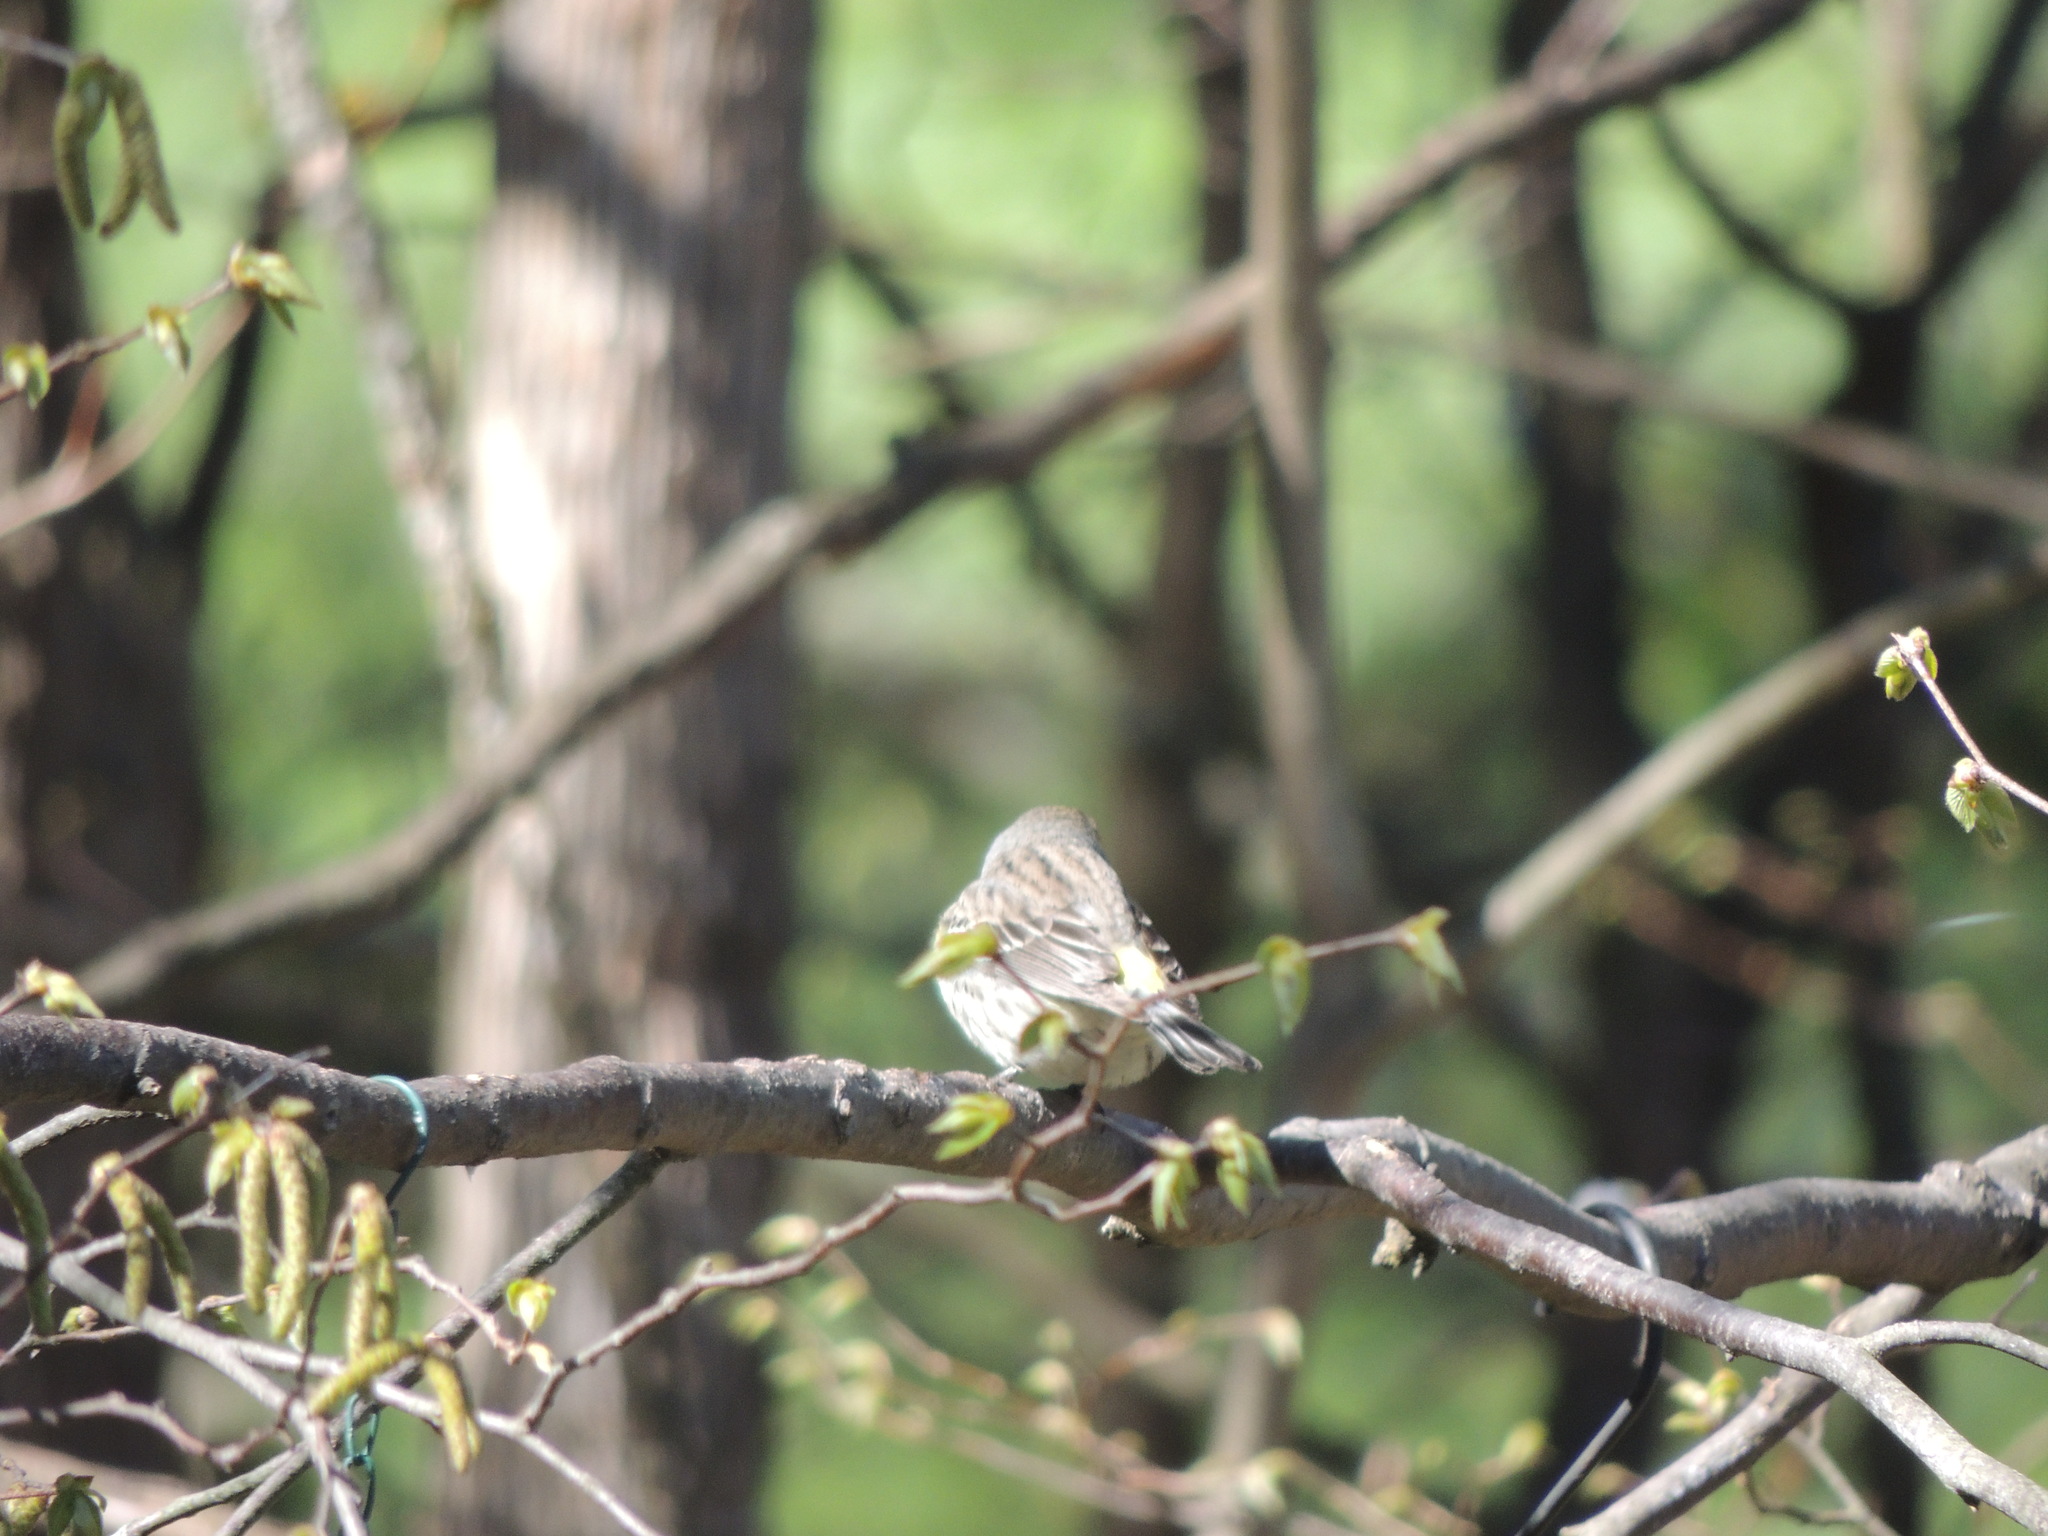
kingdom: Animalia
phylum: Chordata
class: Aves
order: Passeriformes
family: Parulidae
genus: Setophaga
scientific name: Setophaga coronata
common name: Myrtle warbler
